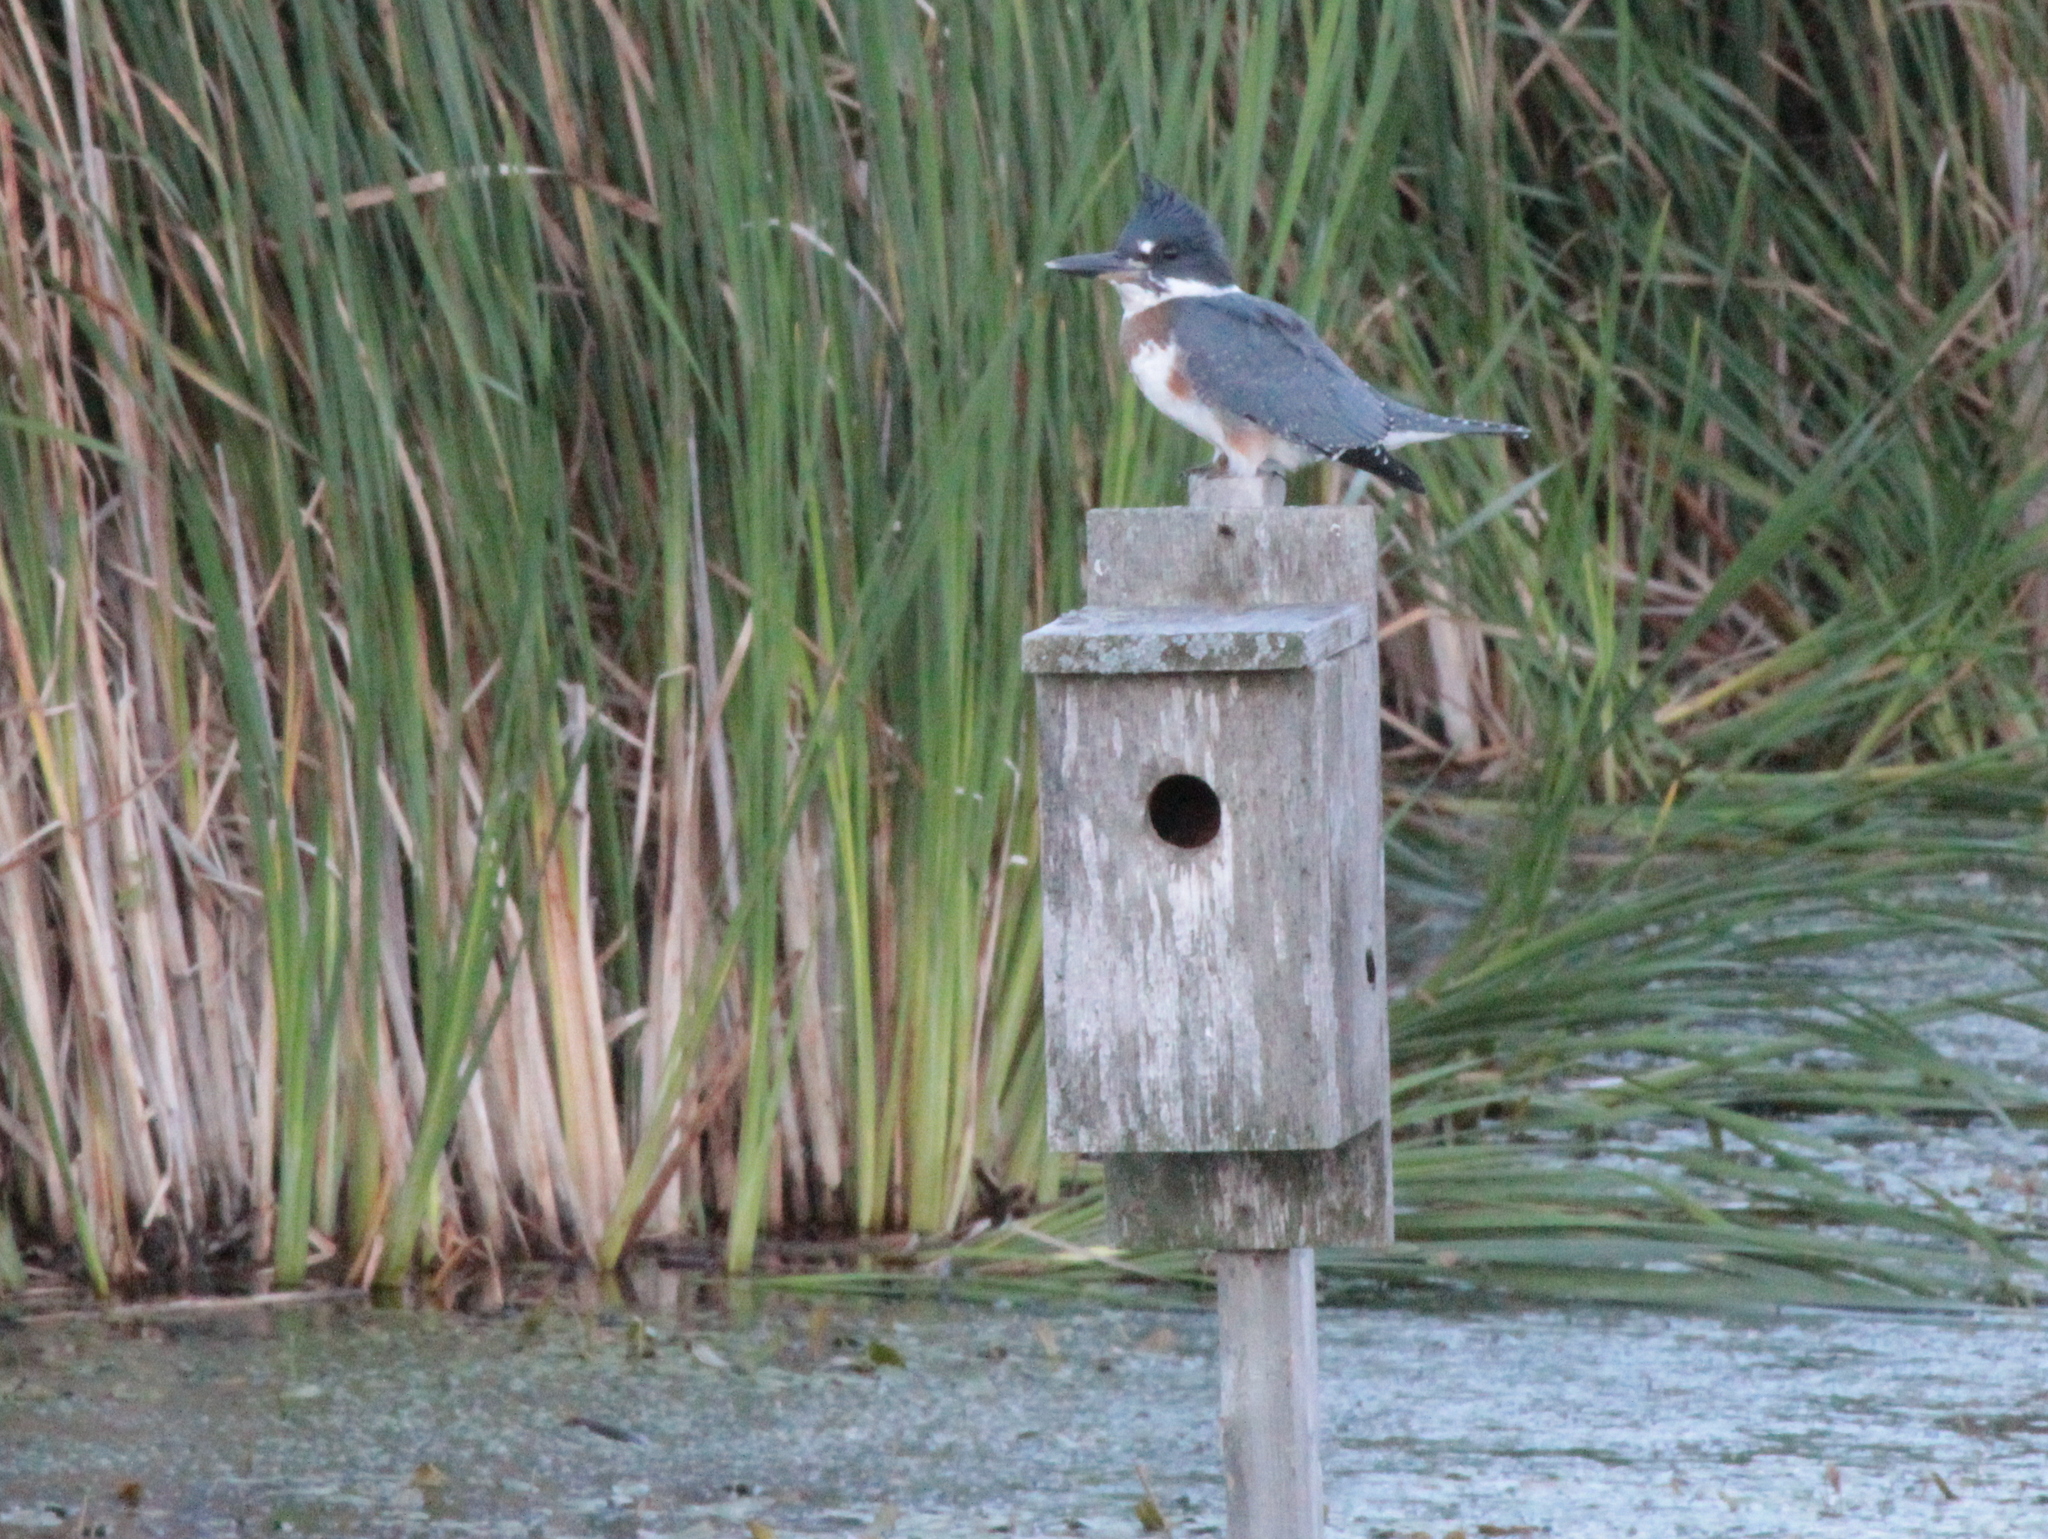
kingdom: Animalia
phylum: Chordata
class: Aves
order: Coraciiformes
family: Alcedinidae
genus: Megaceryle
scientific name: Megaceryle alcyon
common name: Belted kingfisher
